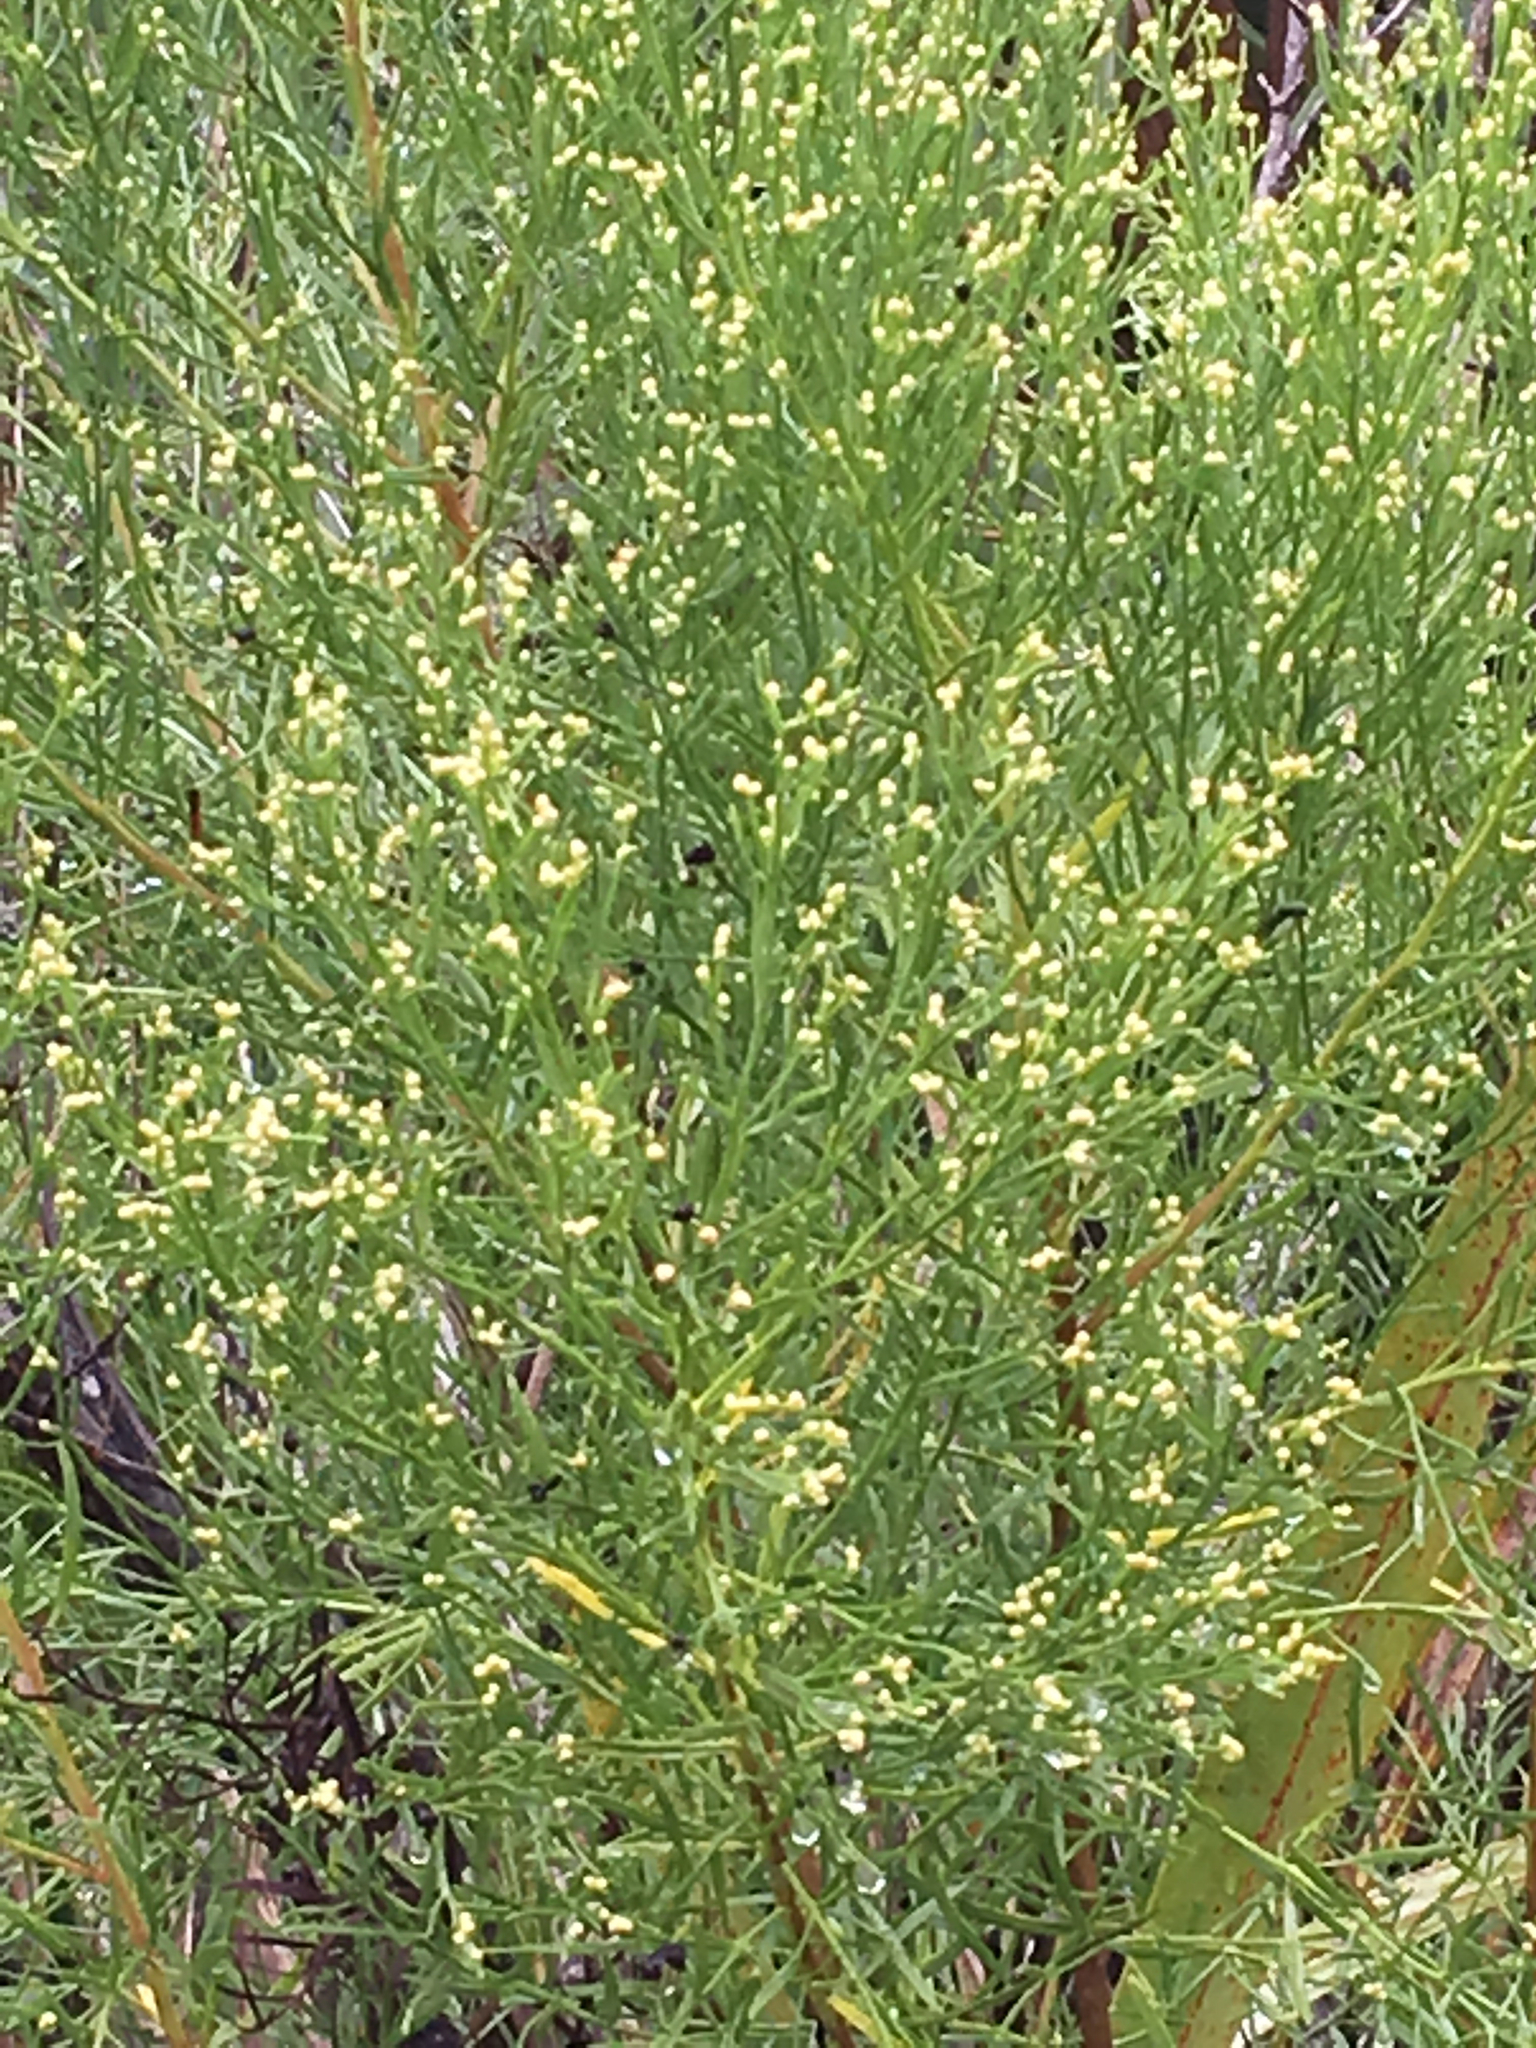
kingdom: Plantae
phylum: Tracheophyta
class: Magnoliopsida
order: Asterales
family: Asteraceae
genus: Baccharis
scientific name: Baccharis angustifolia
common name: Narrow-leaf baccharis
